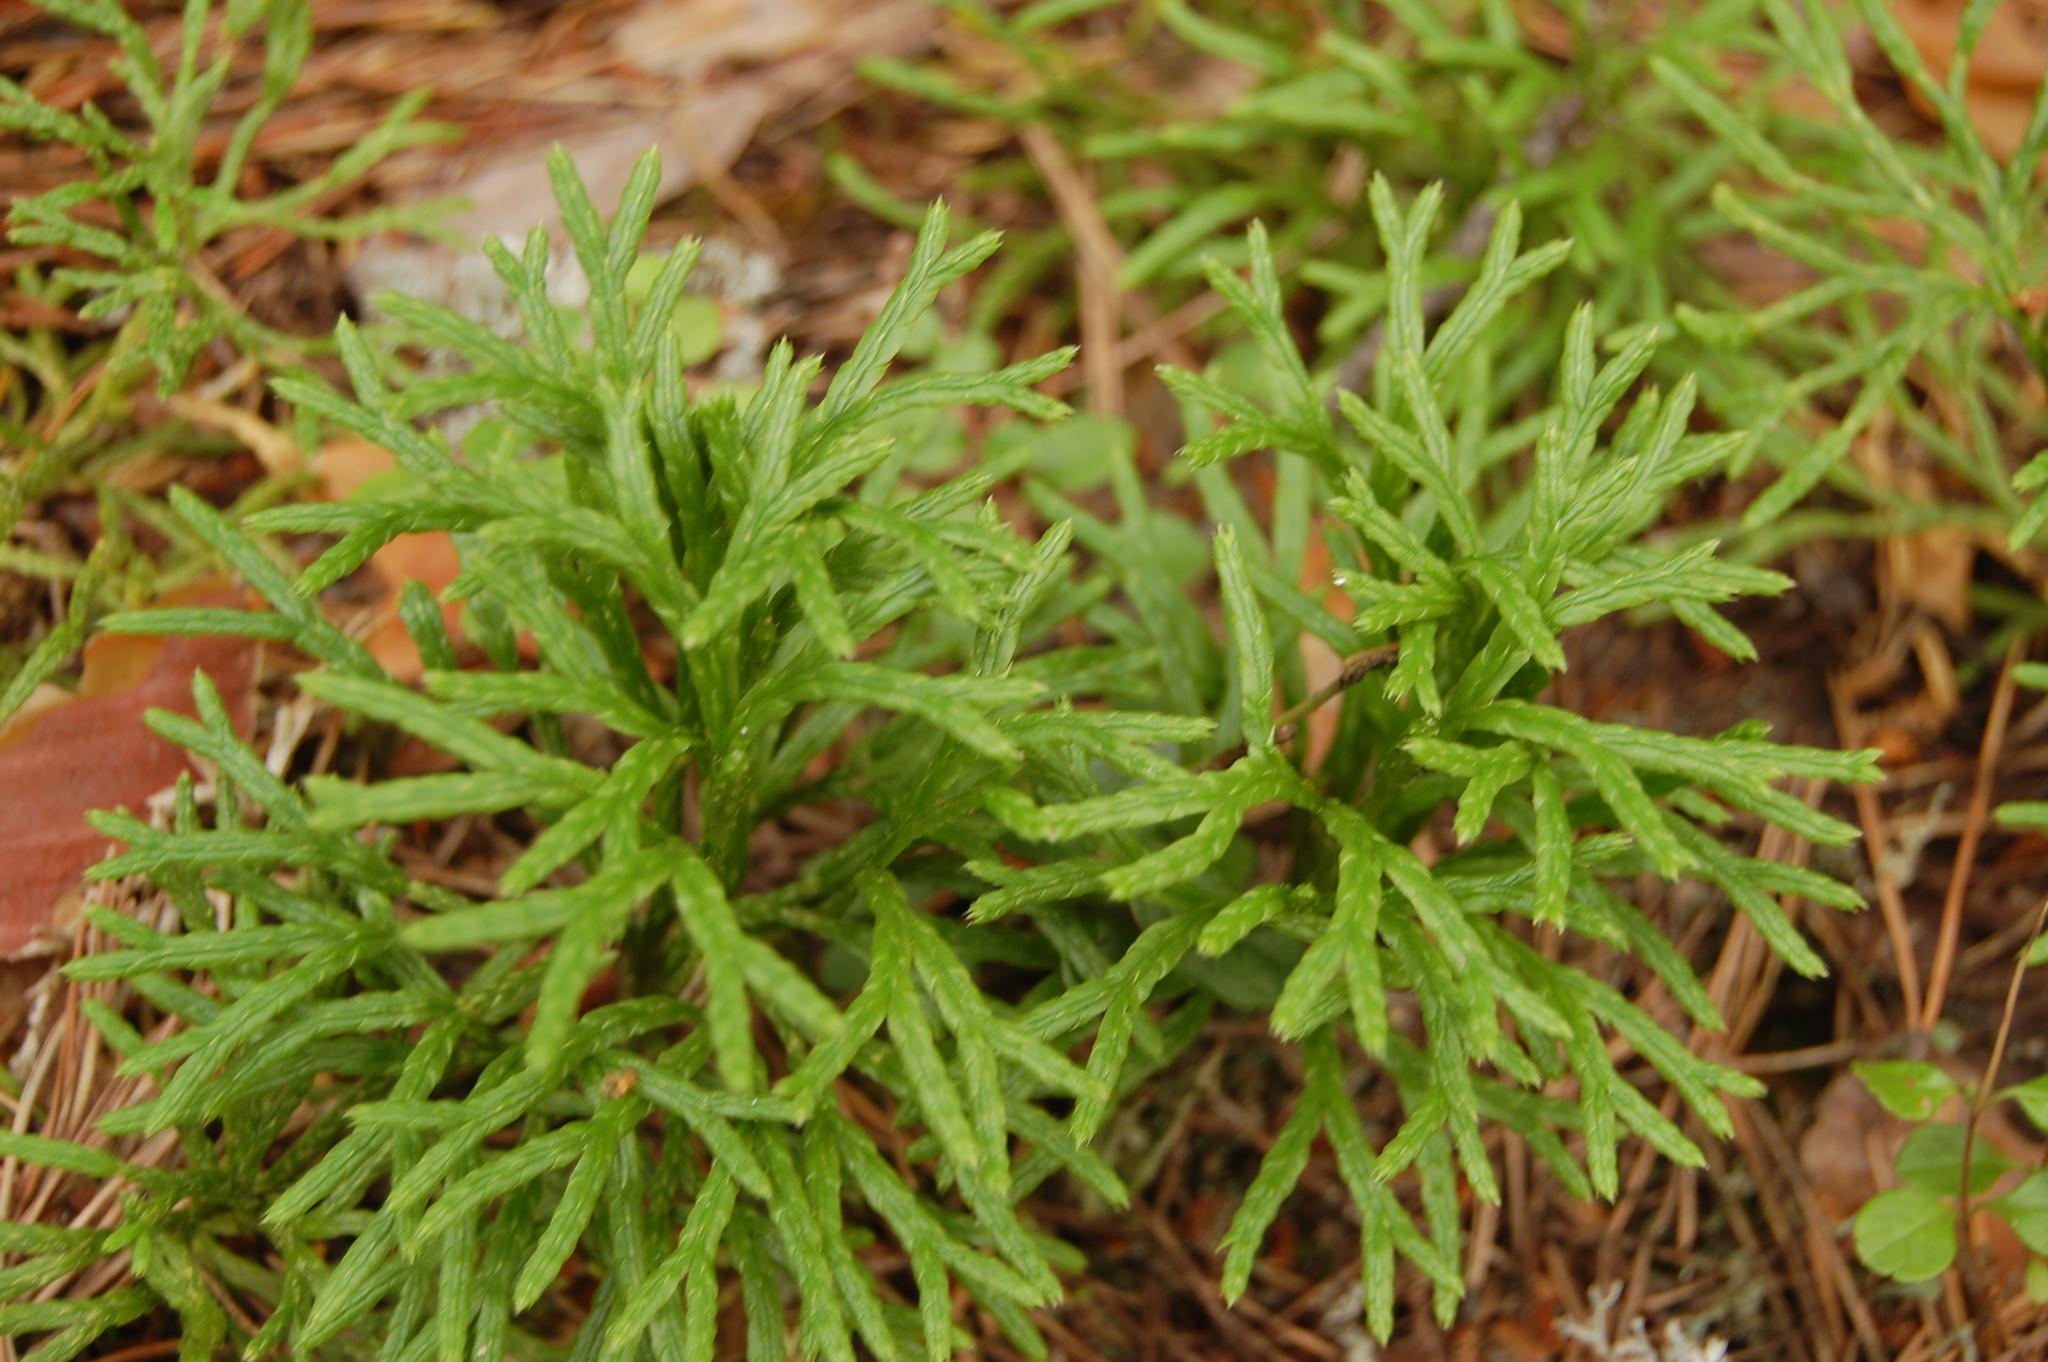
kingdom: Plantae
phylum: Tracheophyta
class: Lycopodiopsida
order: Lycopodiales
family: Lycopodiaceae
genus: Diphasiastrum
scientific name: Diphasiastrum complanatum
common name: Northern running-pine
